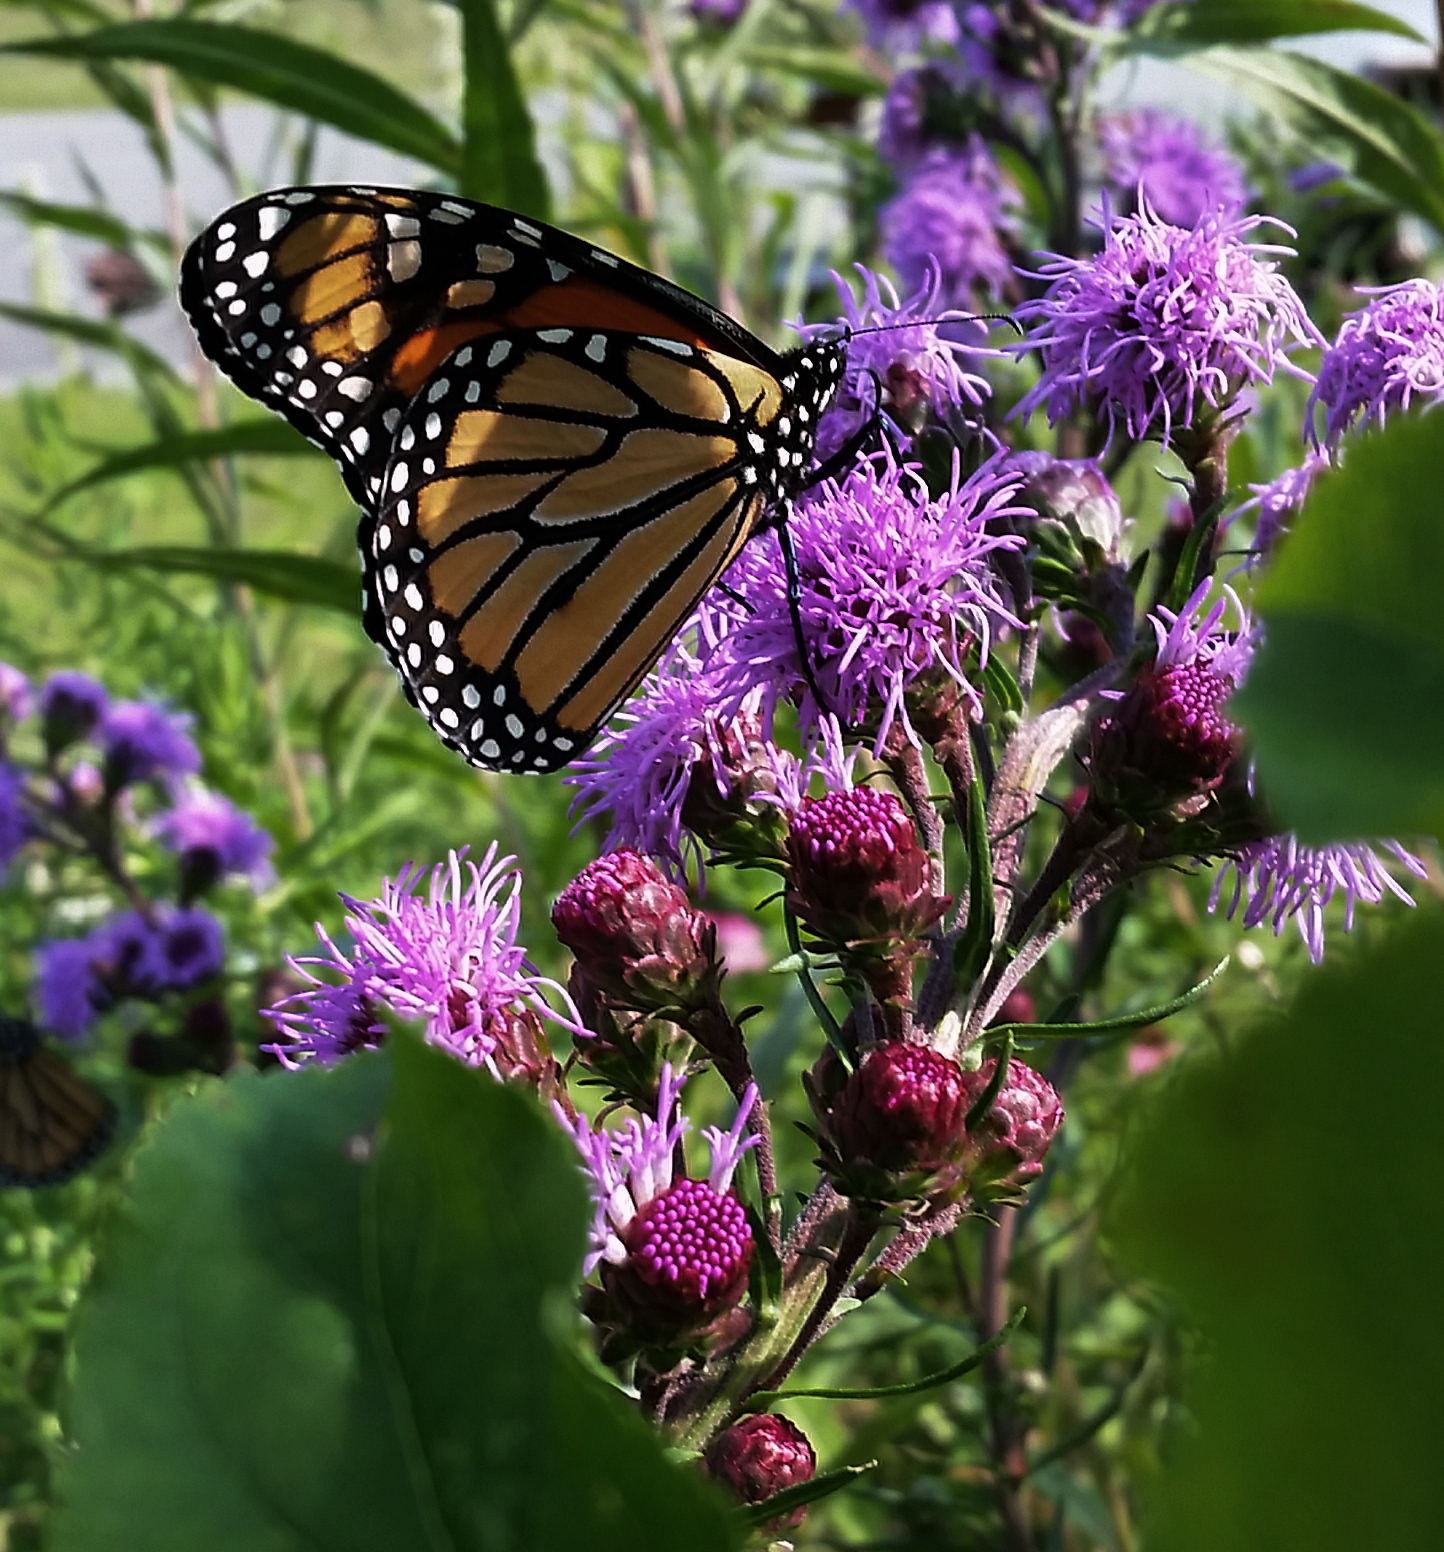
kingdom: Animalia
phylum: Arthropoda
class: Insecta
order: Lepidoptera
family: Nymphalidae
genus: Danaus
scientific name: Danaus plexippus
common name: Monarch
